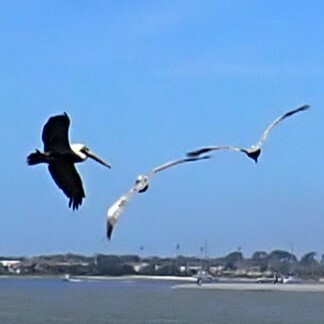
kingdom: Animalia
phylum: Chordata
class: Aves
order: Pelecaniformes
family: Pelecanidae
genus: Pelecanus
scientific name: Pelecanus occidentalis
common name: Brown pelican
